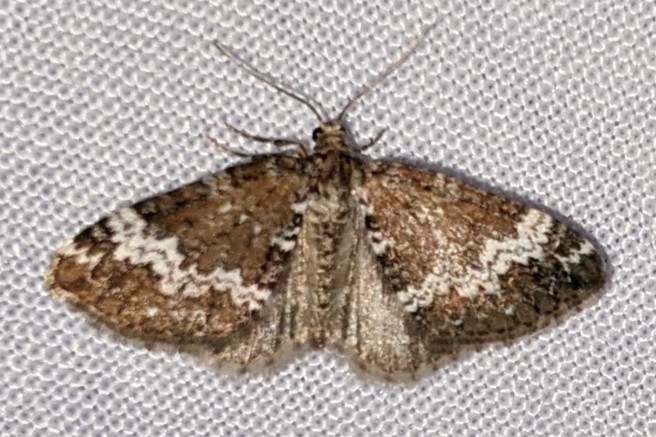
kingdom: Animalia
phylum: Arthropoda
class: Insecta
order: Lepidoptera
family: Geometridae
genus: Perizoma
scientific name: Perizoma alchemillata
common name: Small rivulet
